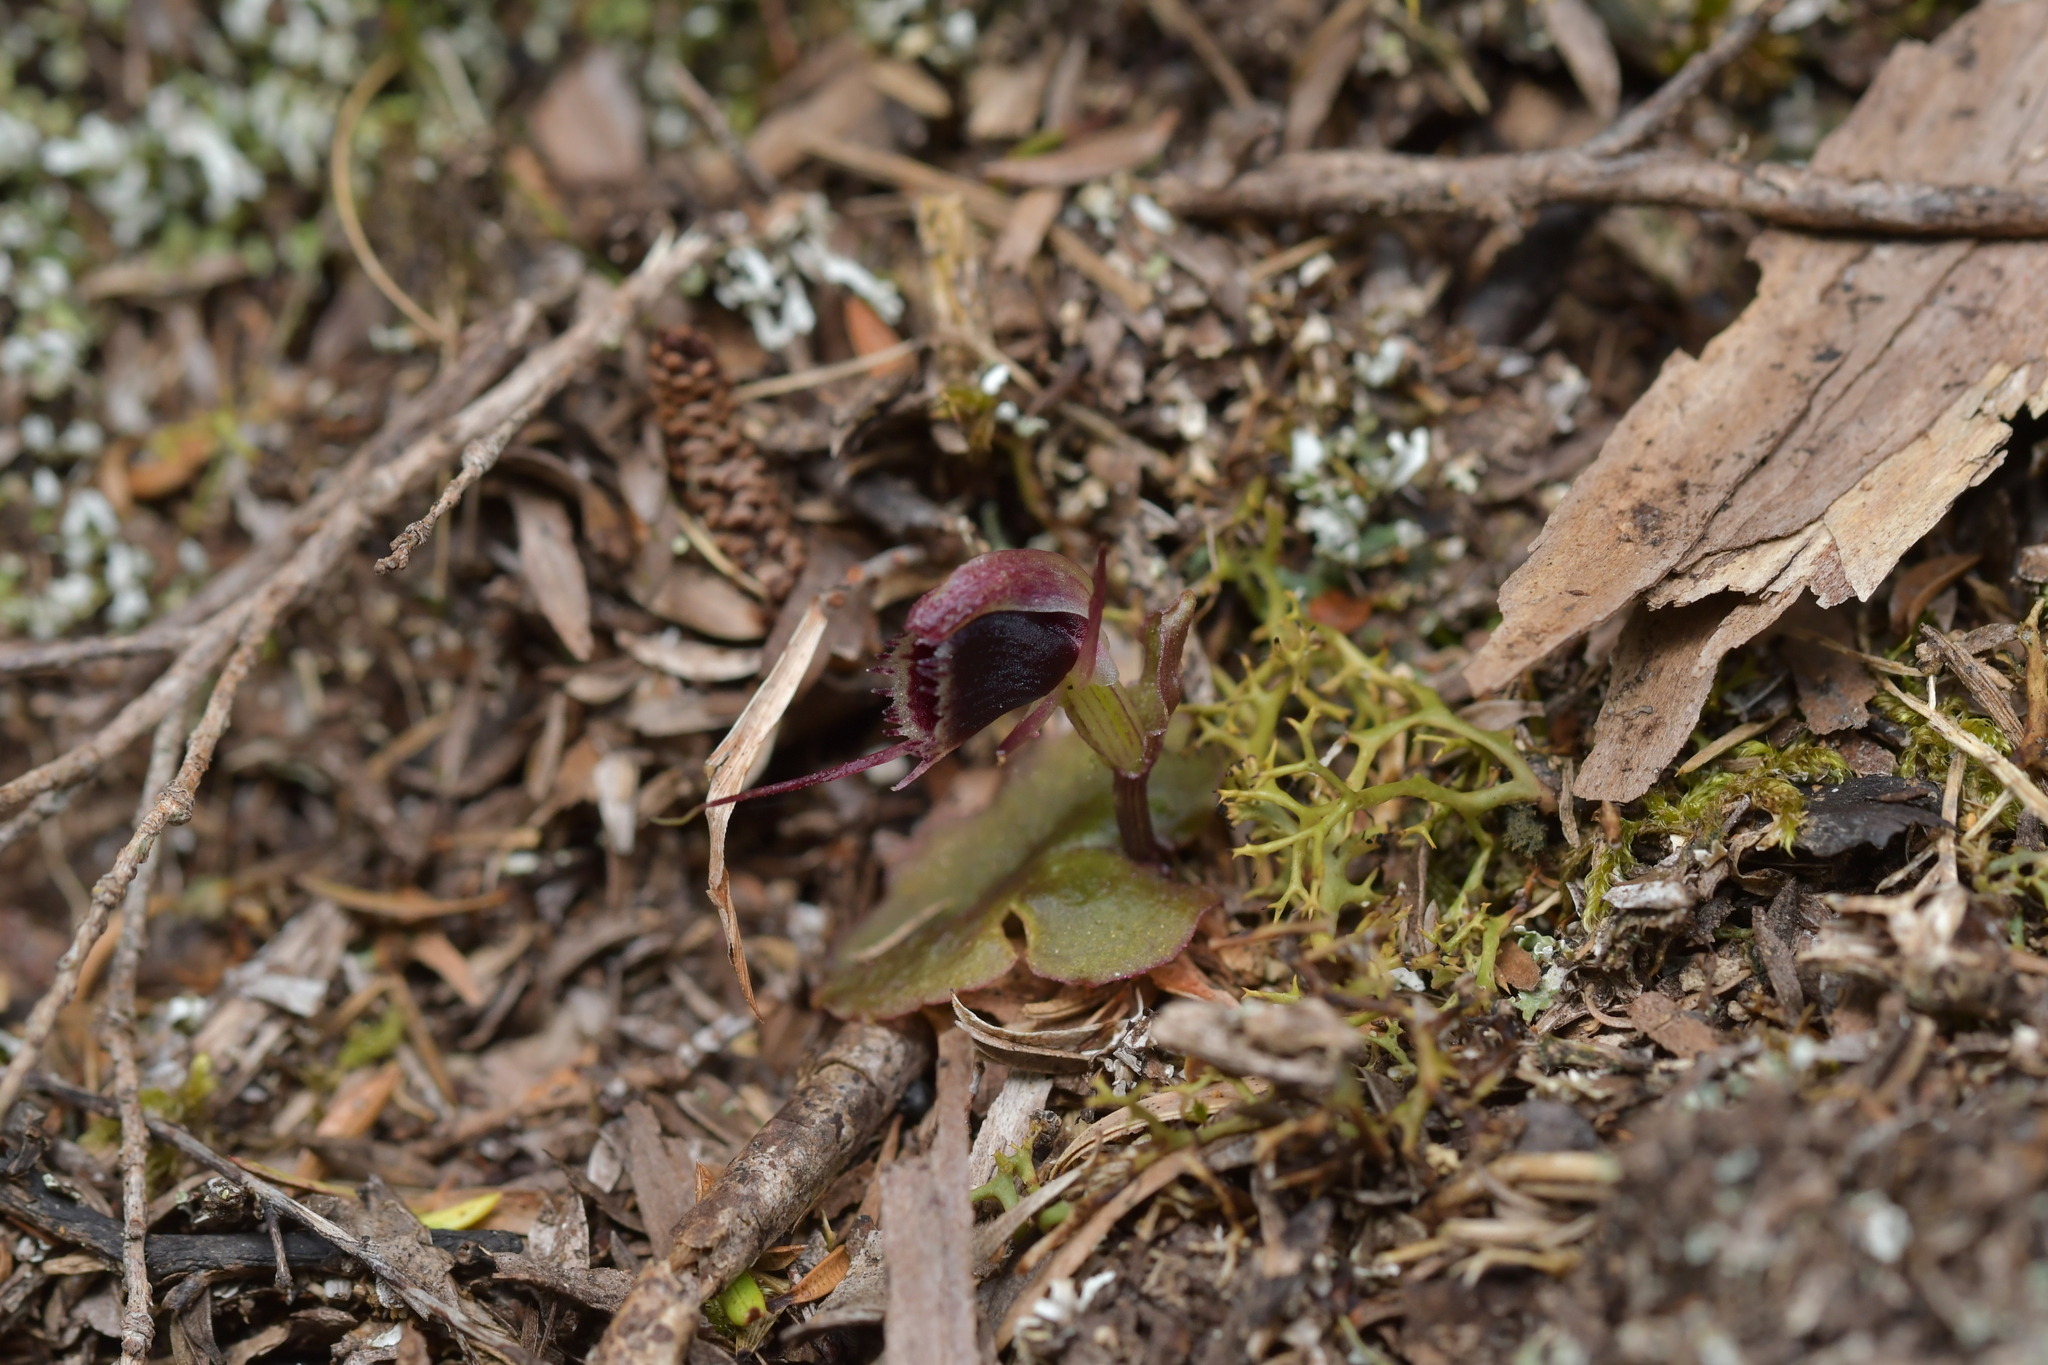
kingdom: Plantae
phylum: Tracheophyta
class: Liliopsida
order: Asparagales
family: Orchidaceae
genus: Corybas
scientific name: Corybas oblongus
